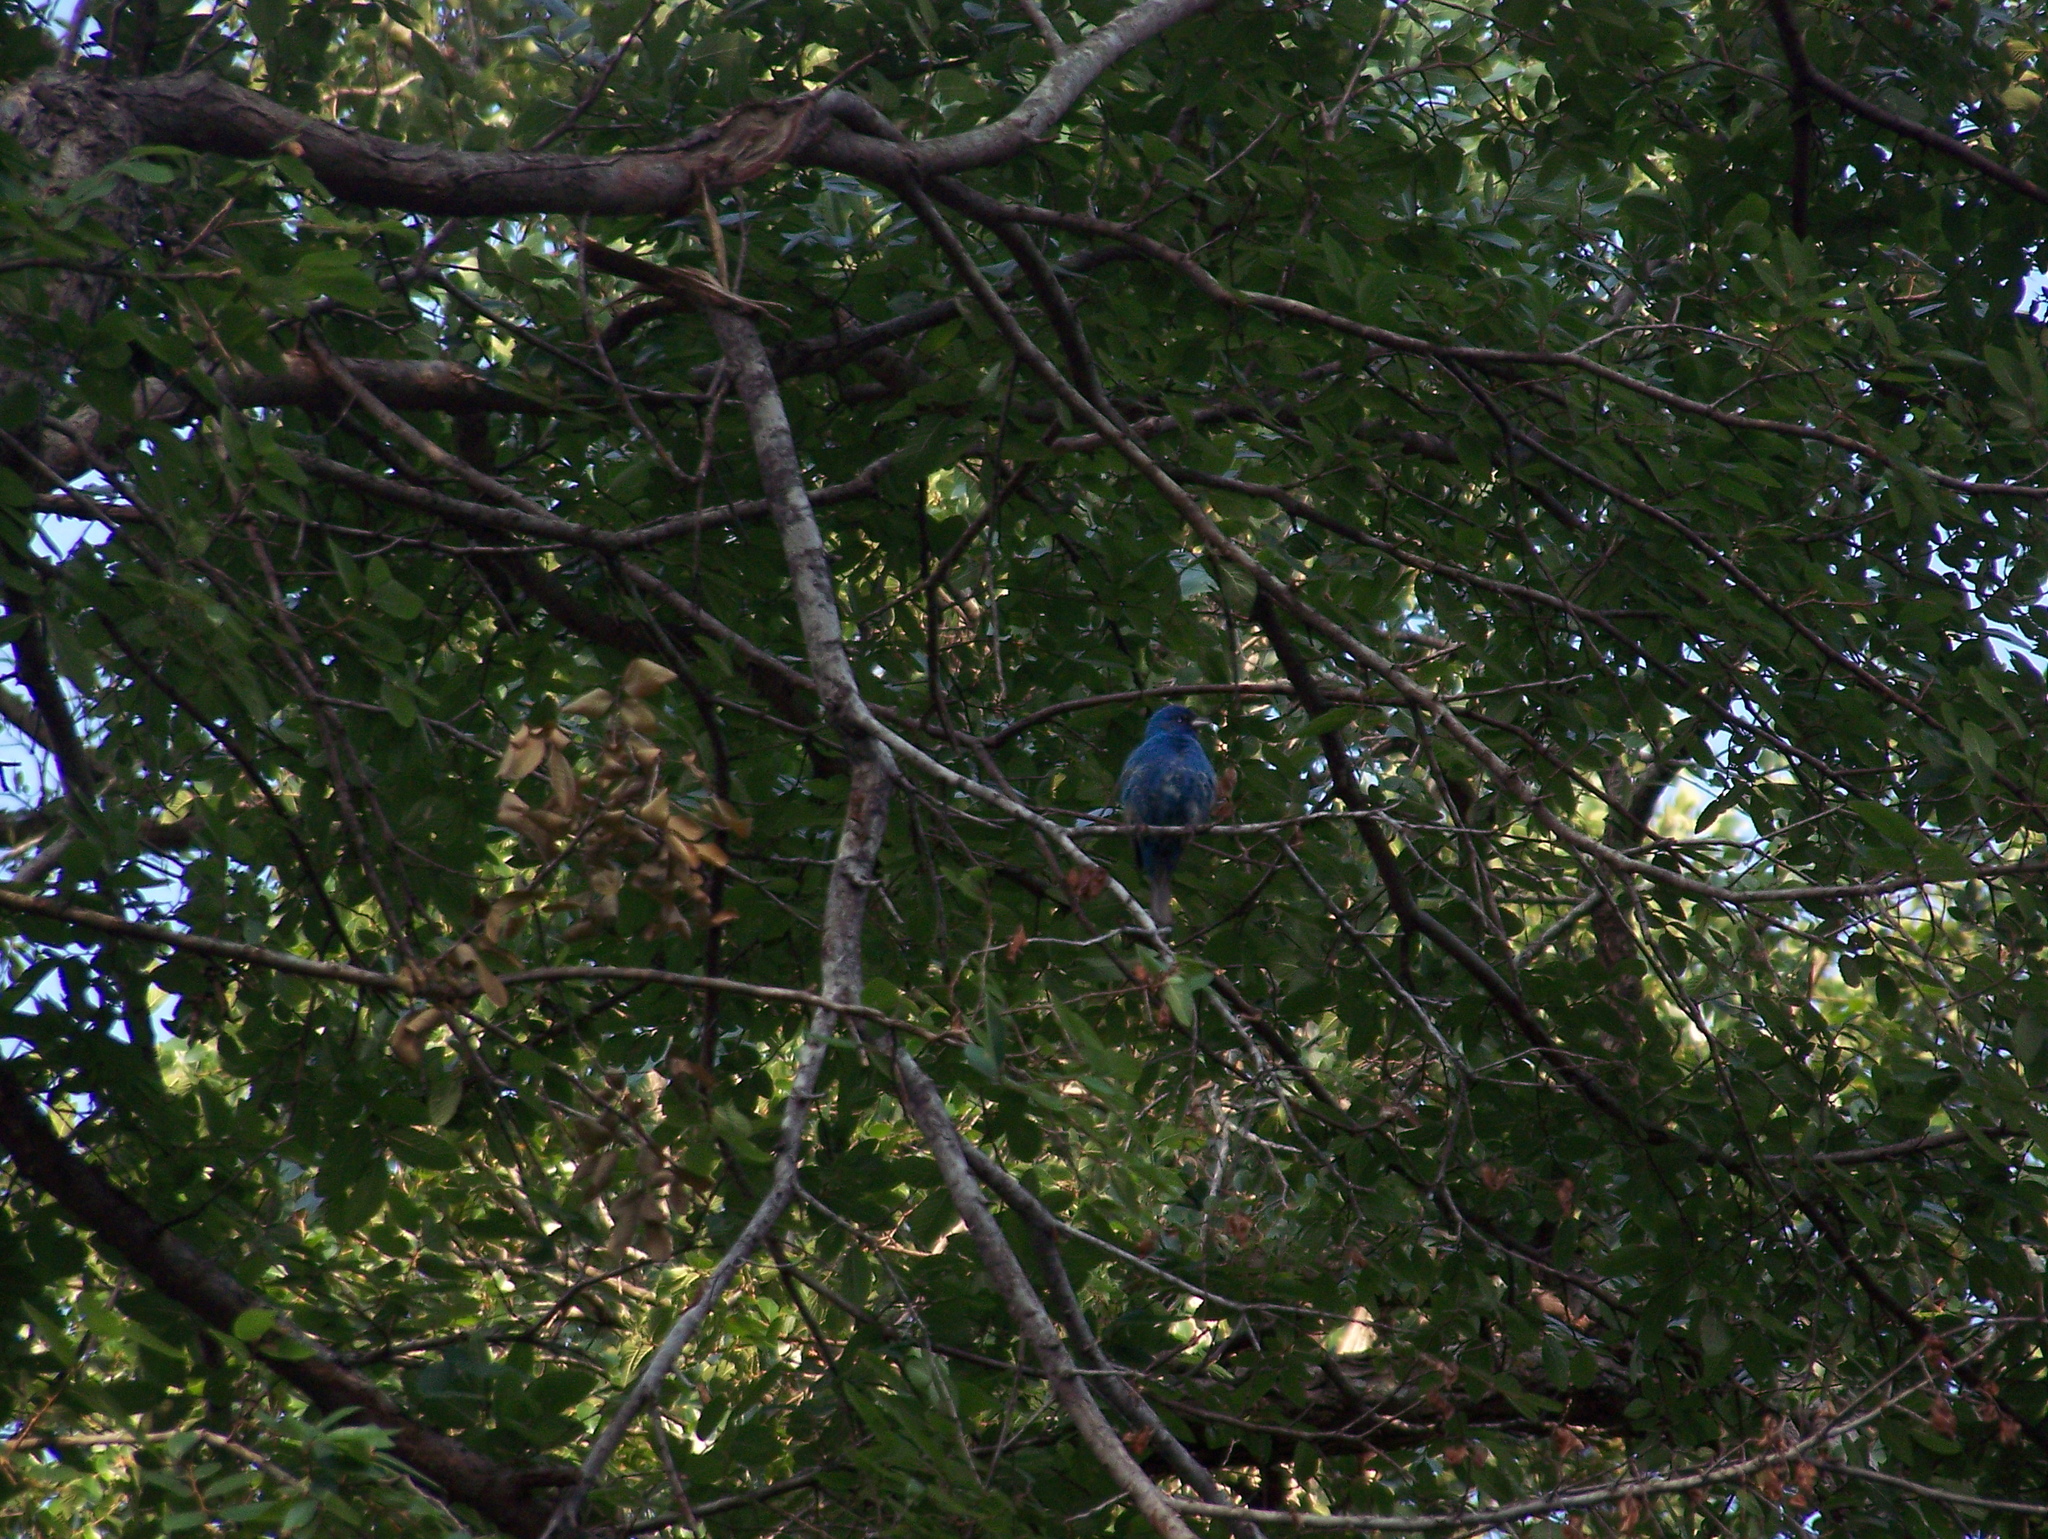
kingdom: Animalia
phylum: Chordata
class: Aves
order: Passeriformes
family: Cardinalidae
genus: Passerina
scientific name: Passerina cyanea
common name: Indigo bunting
